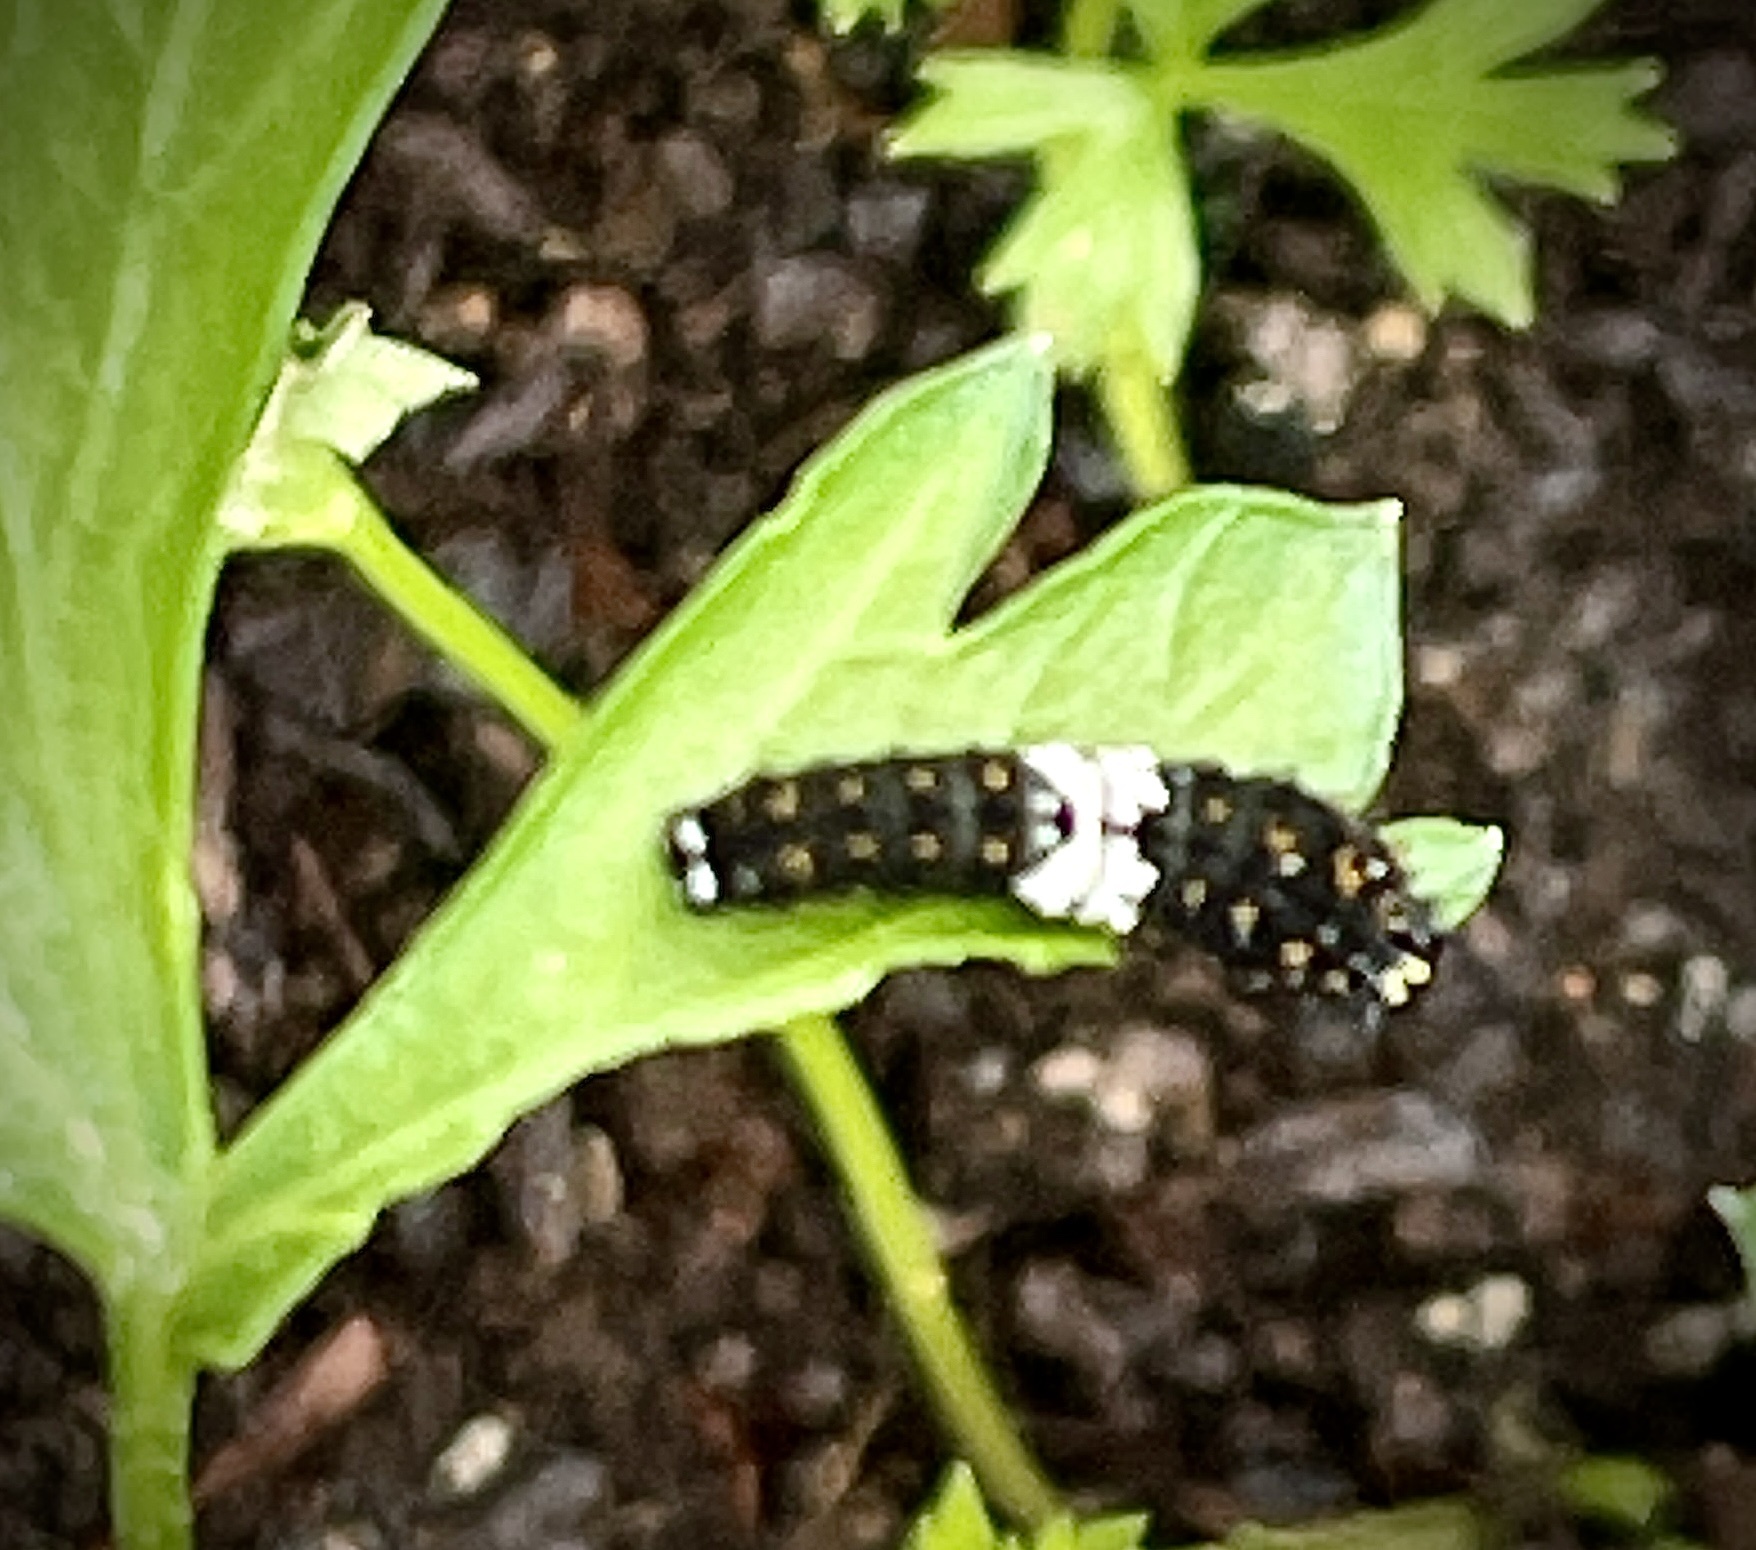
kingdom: Animalia
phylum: Arthropoda
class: Insecta
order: Lepidoptera
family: Papilionidae
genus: Papilio
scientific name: Papilio polyxenes
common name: Black swallowtail
